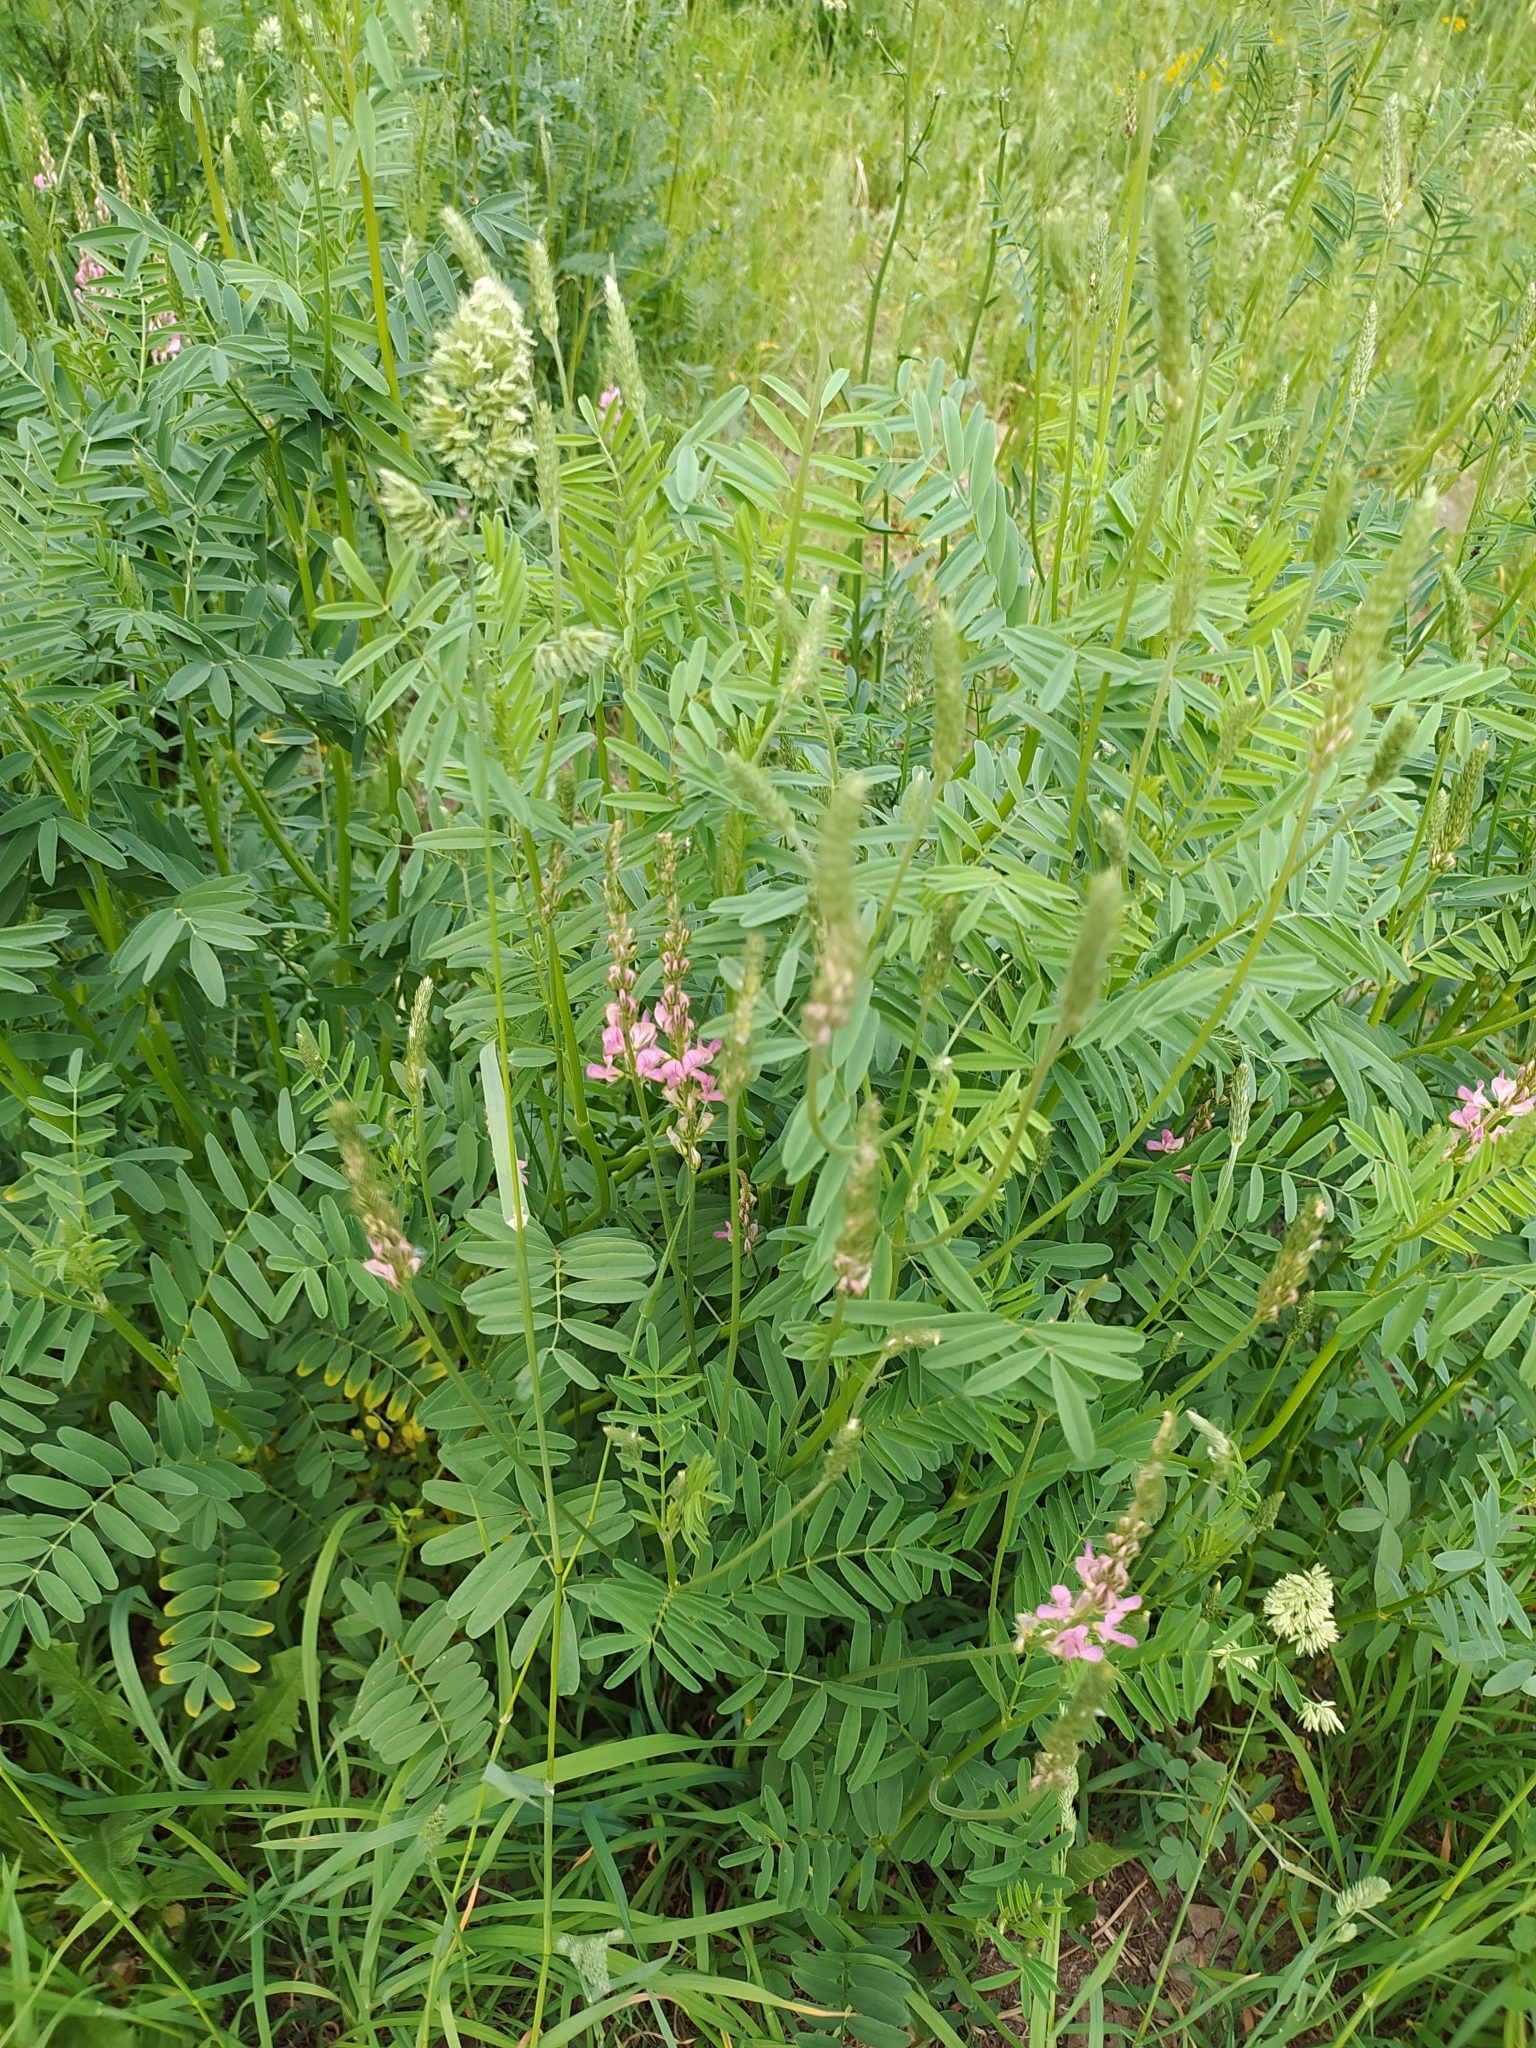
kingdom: Plantae
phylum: Tracheophyta
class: Magnoliopsida
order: Fabales
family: Fabaceae
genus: Onobrychis
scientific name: Onobrychis viciifolia
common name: Sainfoin
